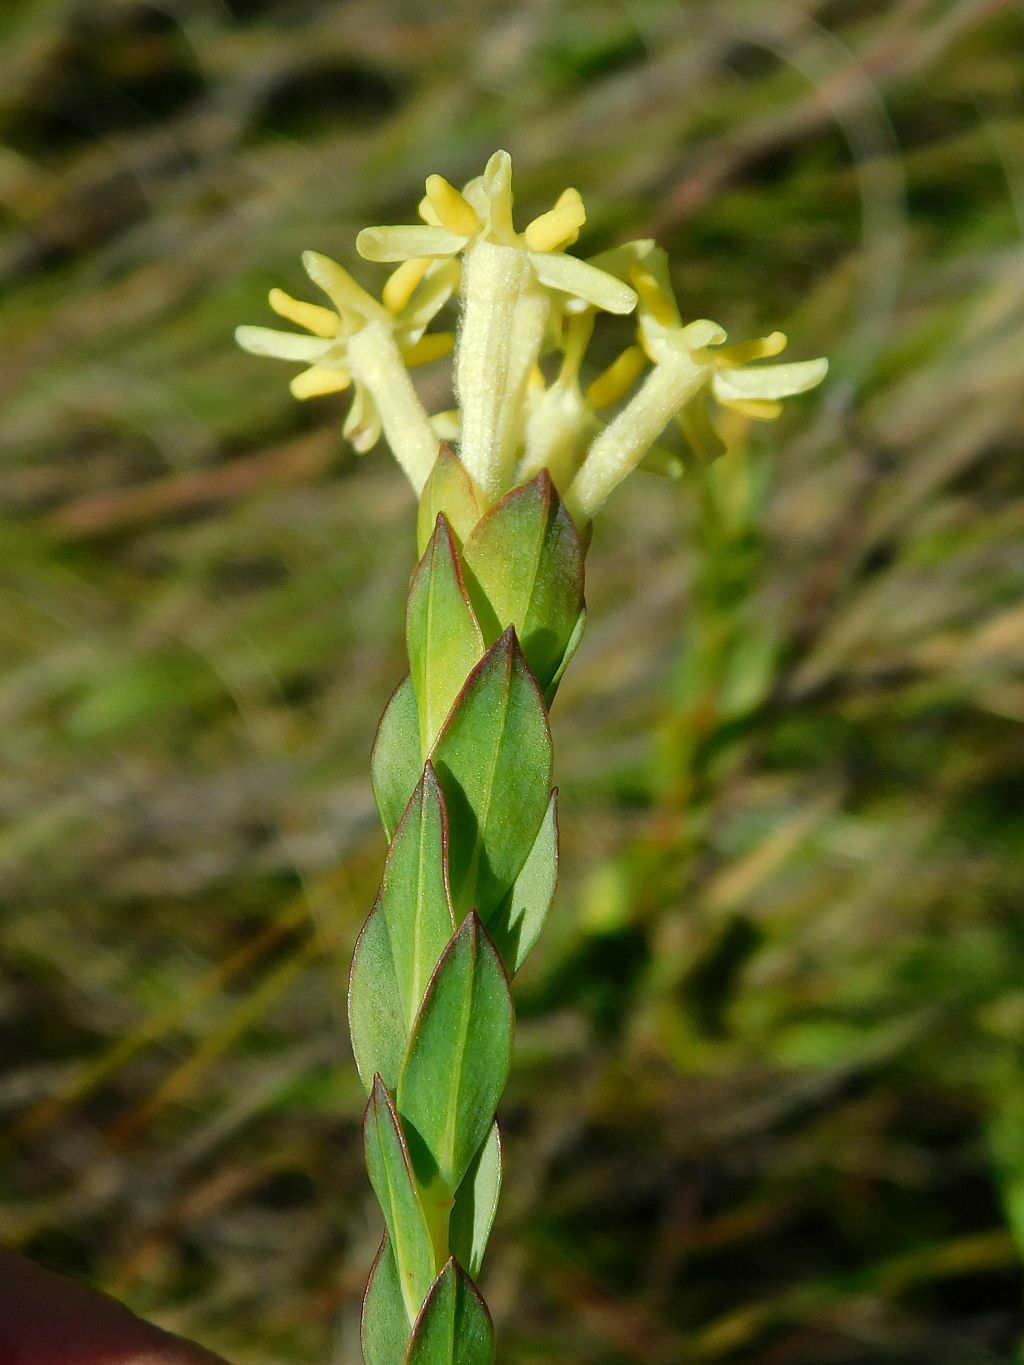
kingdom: Plantae
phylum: Tracheophyta
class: Magnoliopsida
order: Malvales
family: Thymelaeaceae
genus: Gnidia
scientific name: Gnidia oppositifolia
